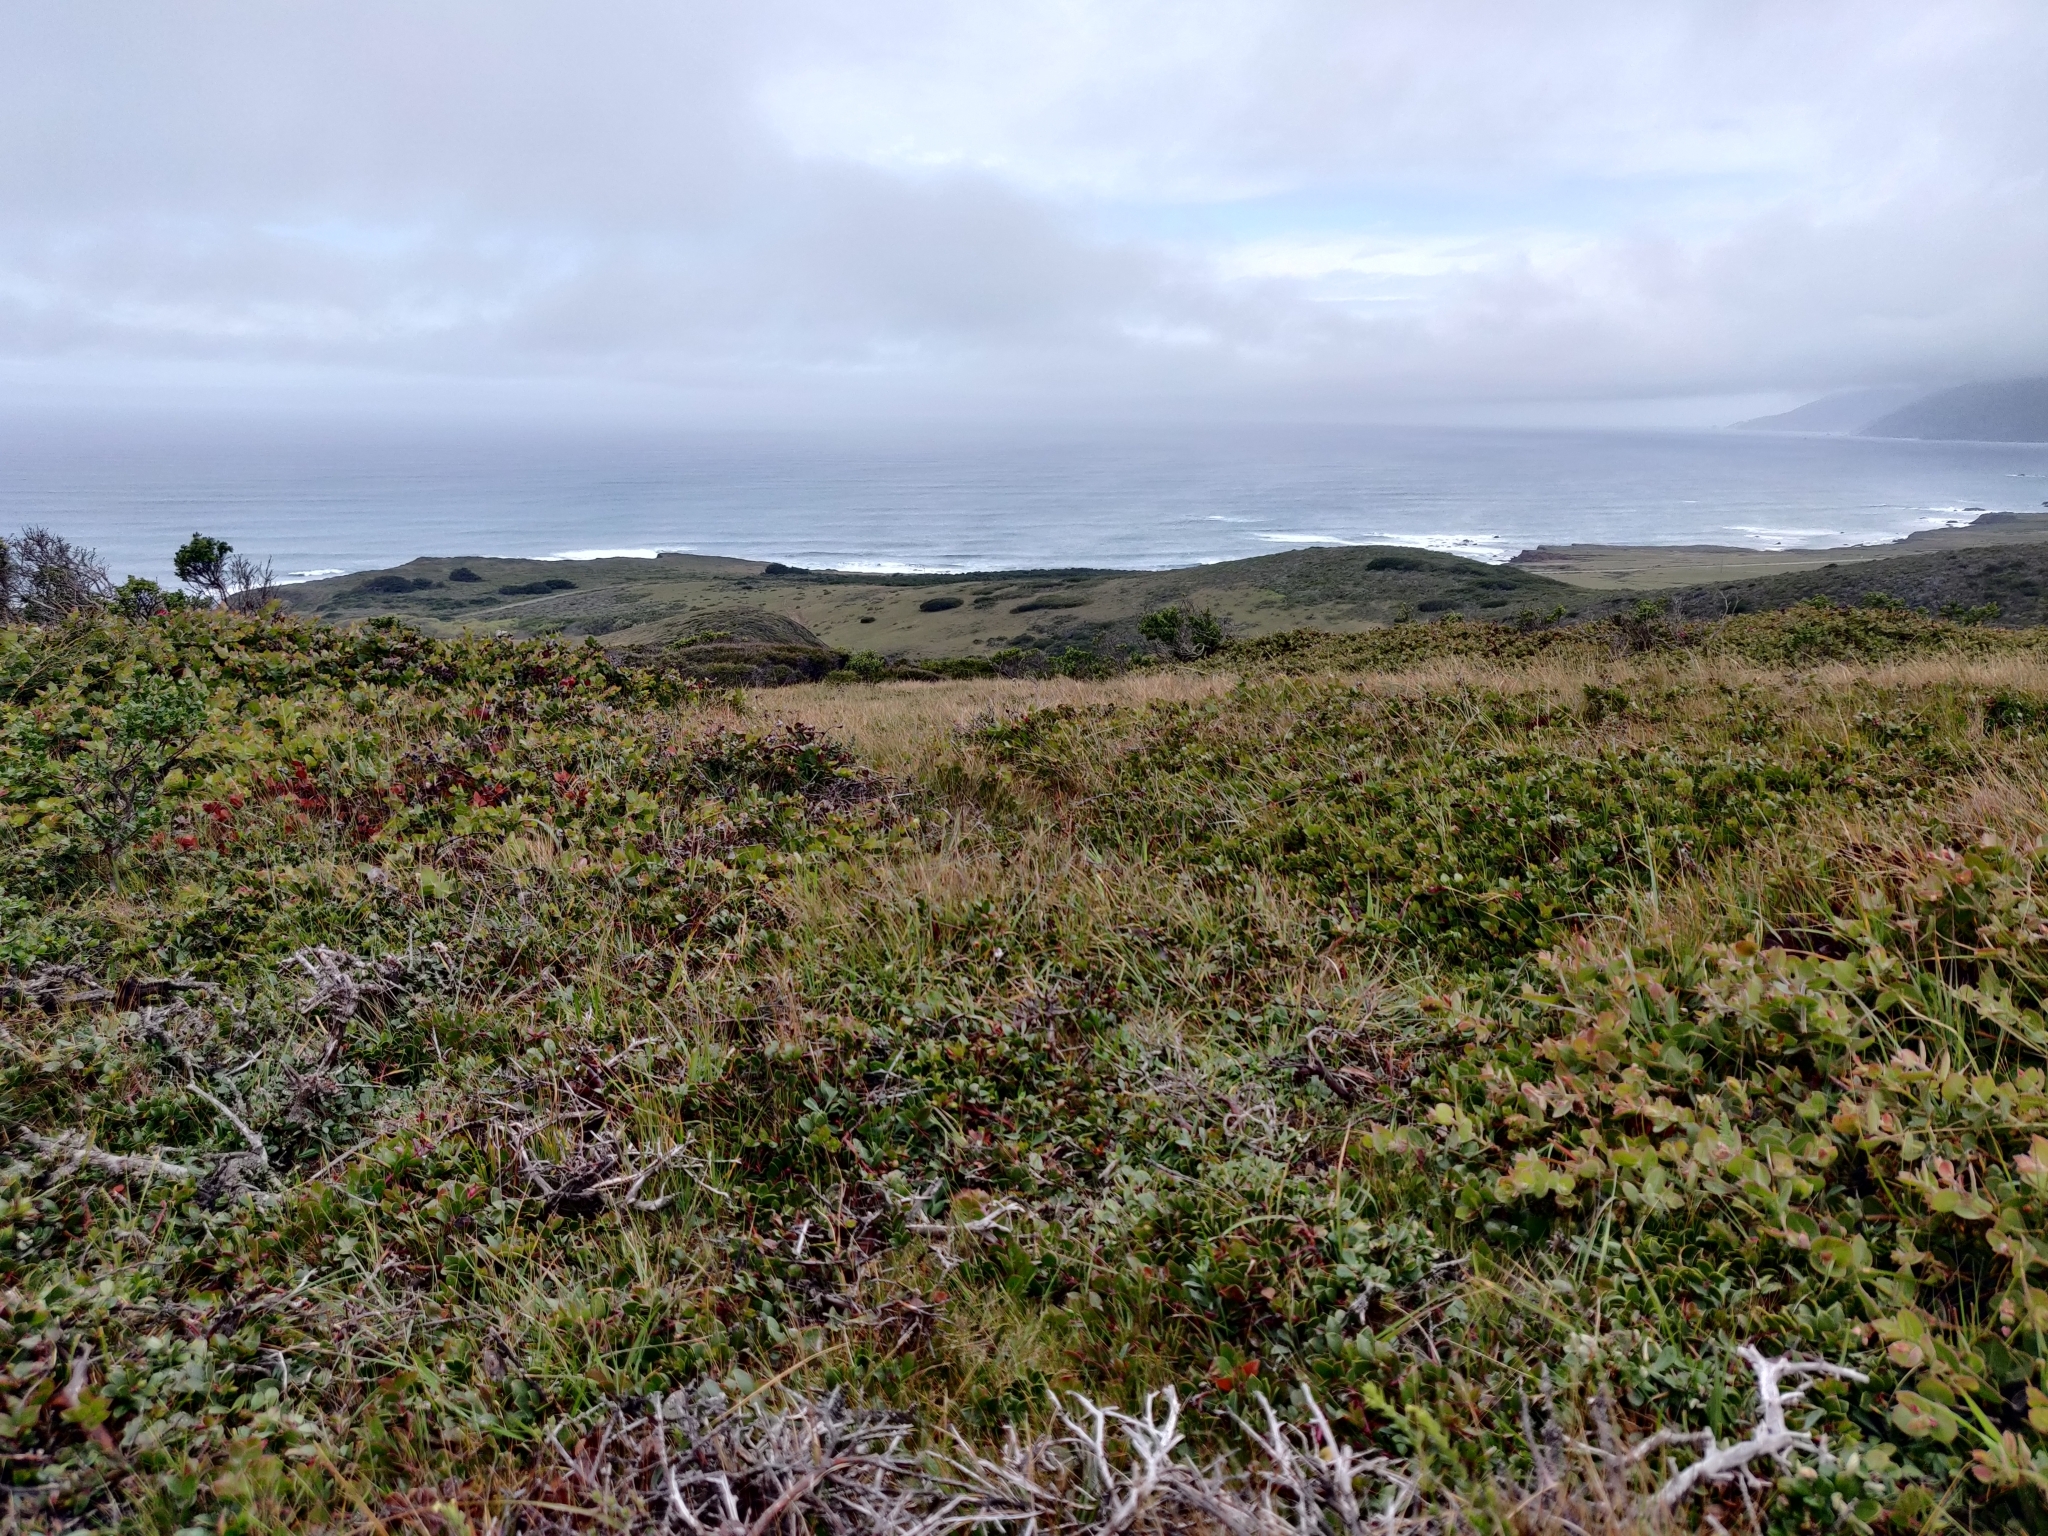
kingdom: Plantae
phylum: Tracheophyta
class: Magnoliopsida
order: Ericales
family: Ericaceae
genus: Arctostaphylos
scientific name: Arctostaphylos hookeri
